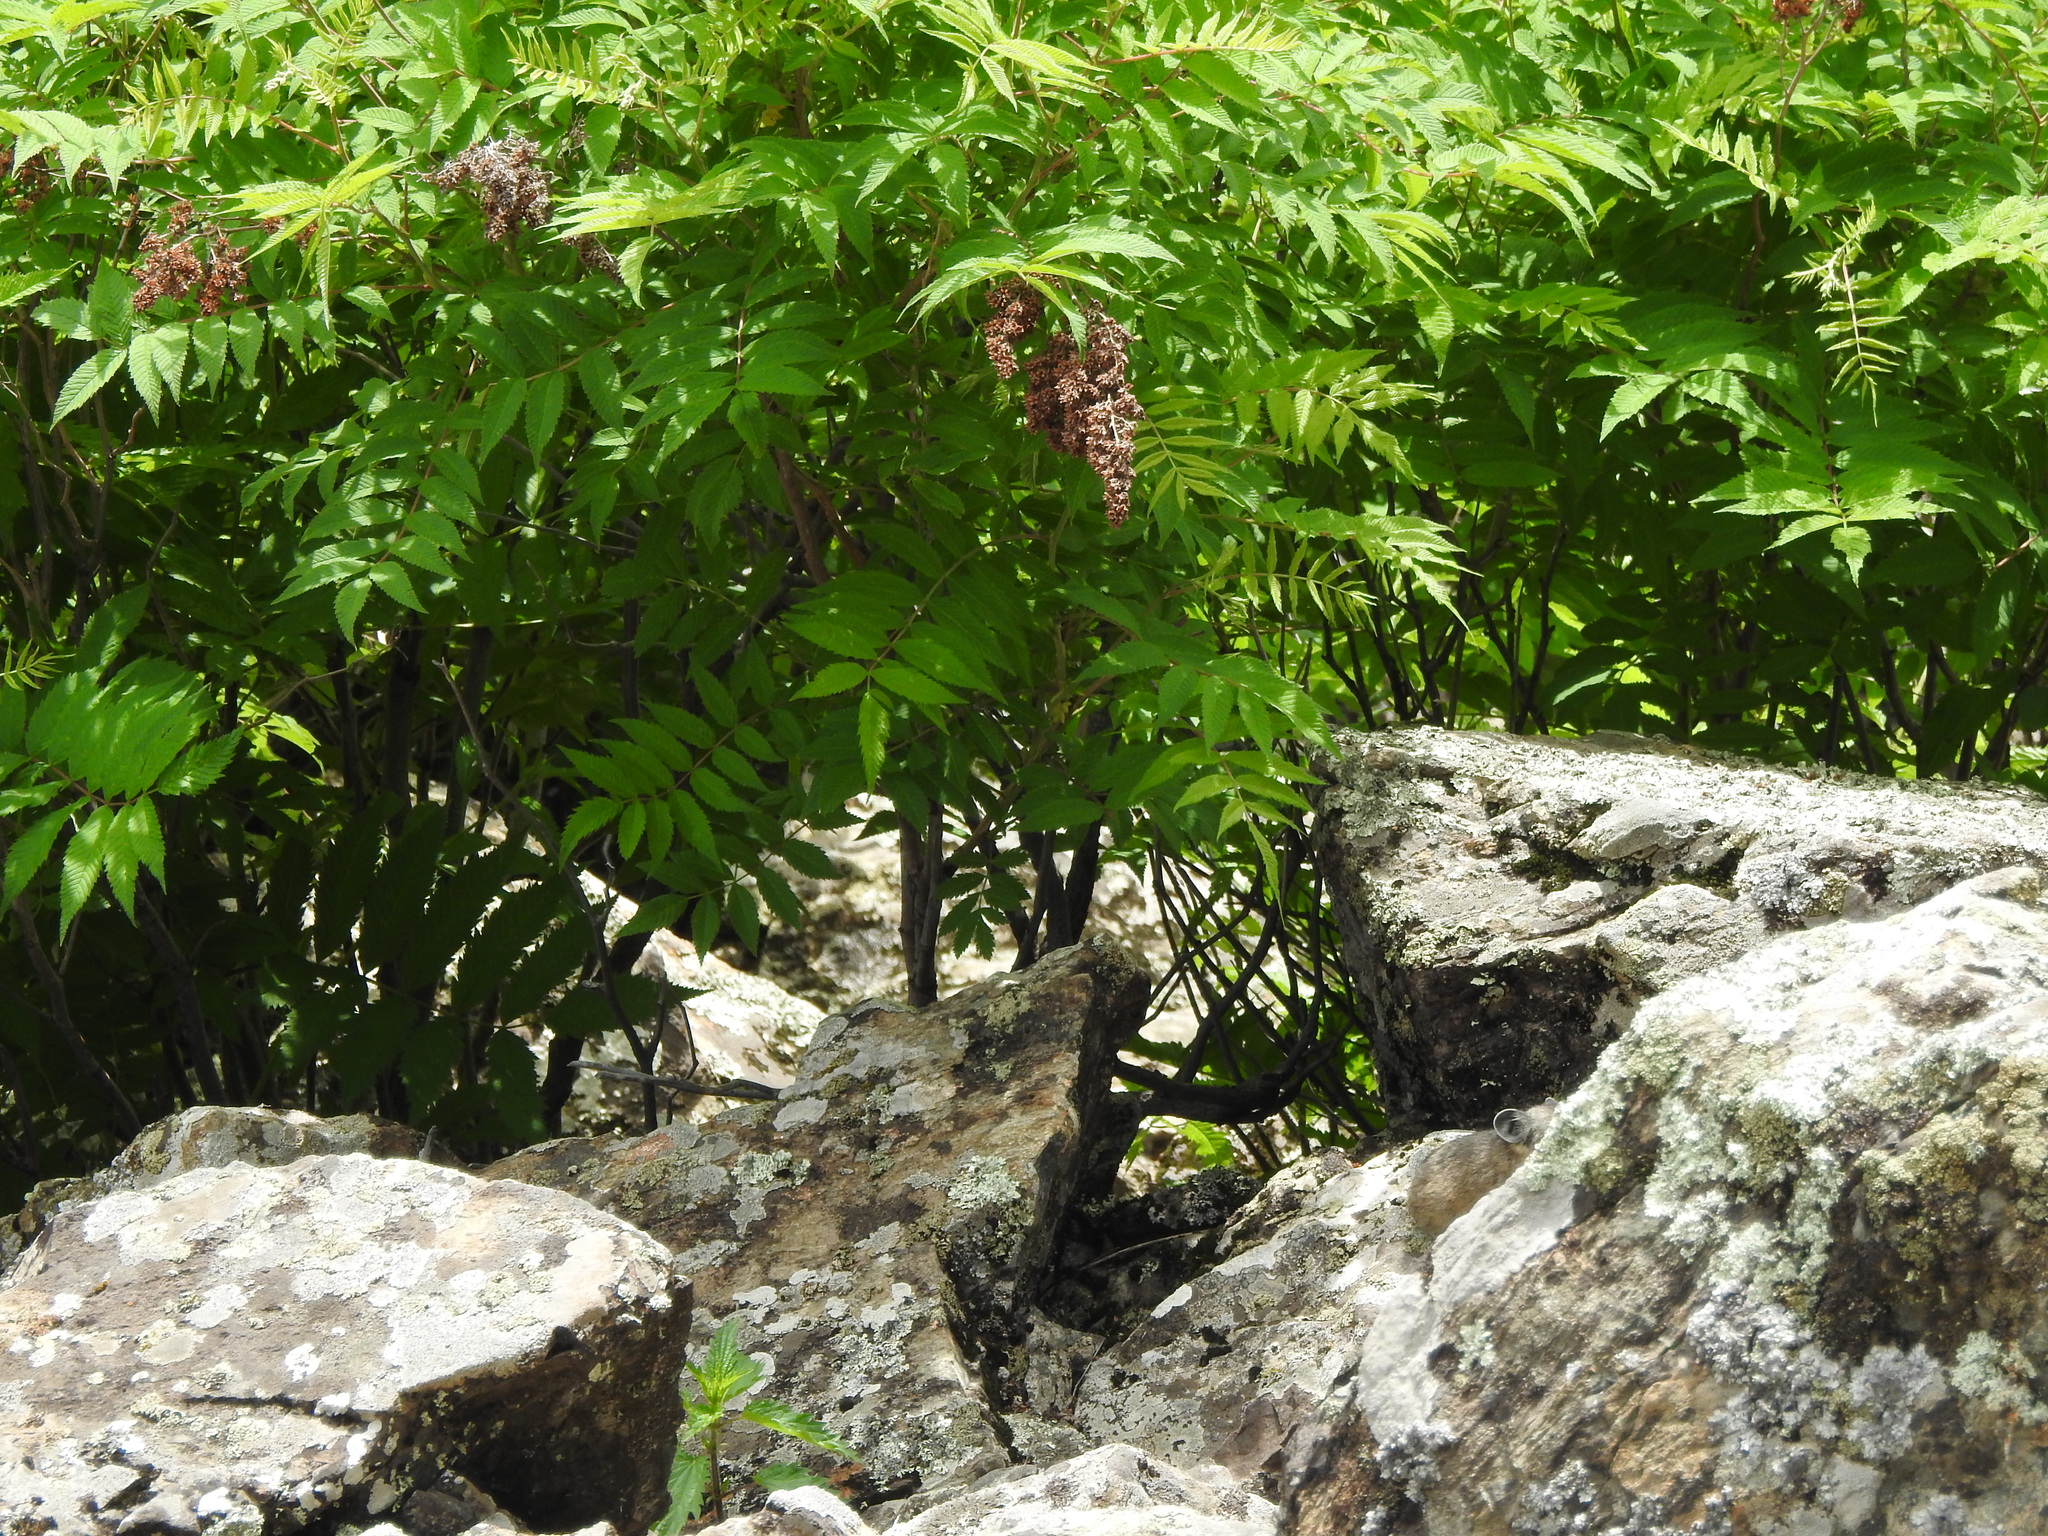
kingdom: Plantae
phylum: Tracheophyta
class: Magnoliopsida
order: Rosales
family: Rosaceae
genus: Sorbaria
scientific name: Sorbaria sorbifolia
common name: False spiraea
